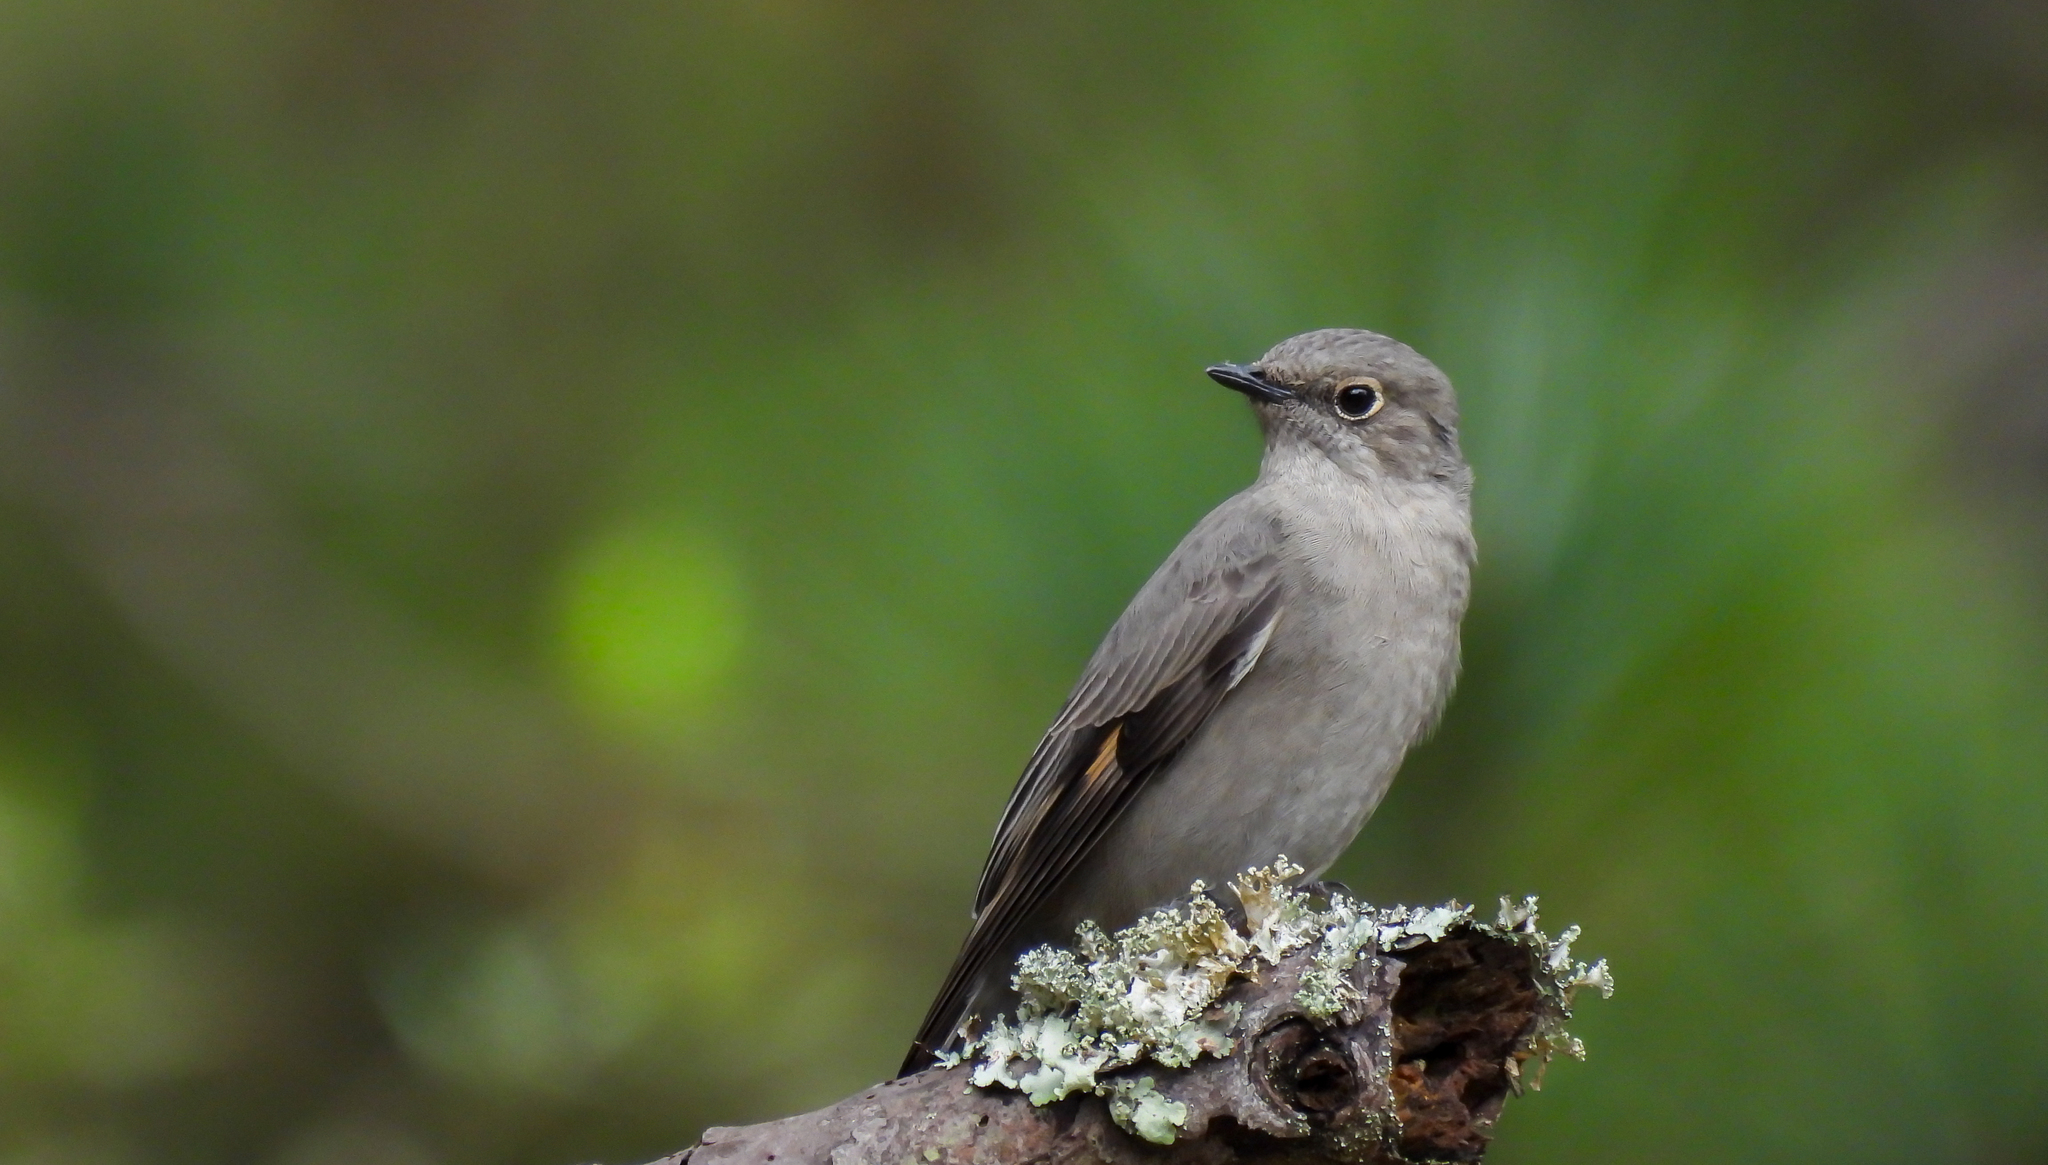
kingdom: Animalia
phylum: Chordata
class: Aves
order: Passeriformes
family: Turdidae
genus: Myadestes
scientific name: Myadestes townsendi
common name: Townsend's solitaire
